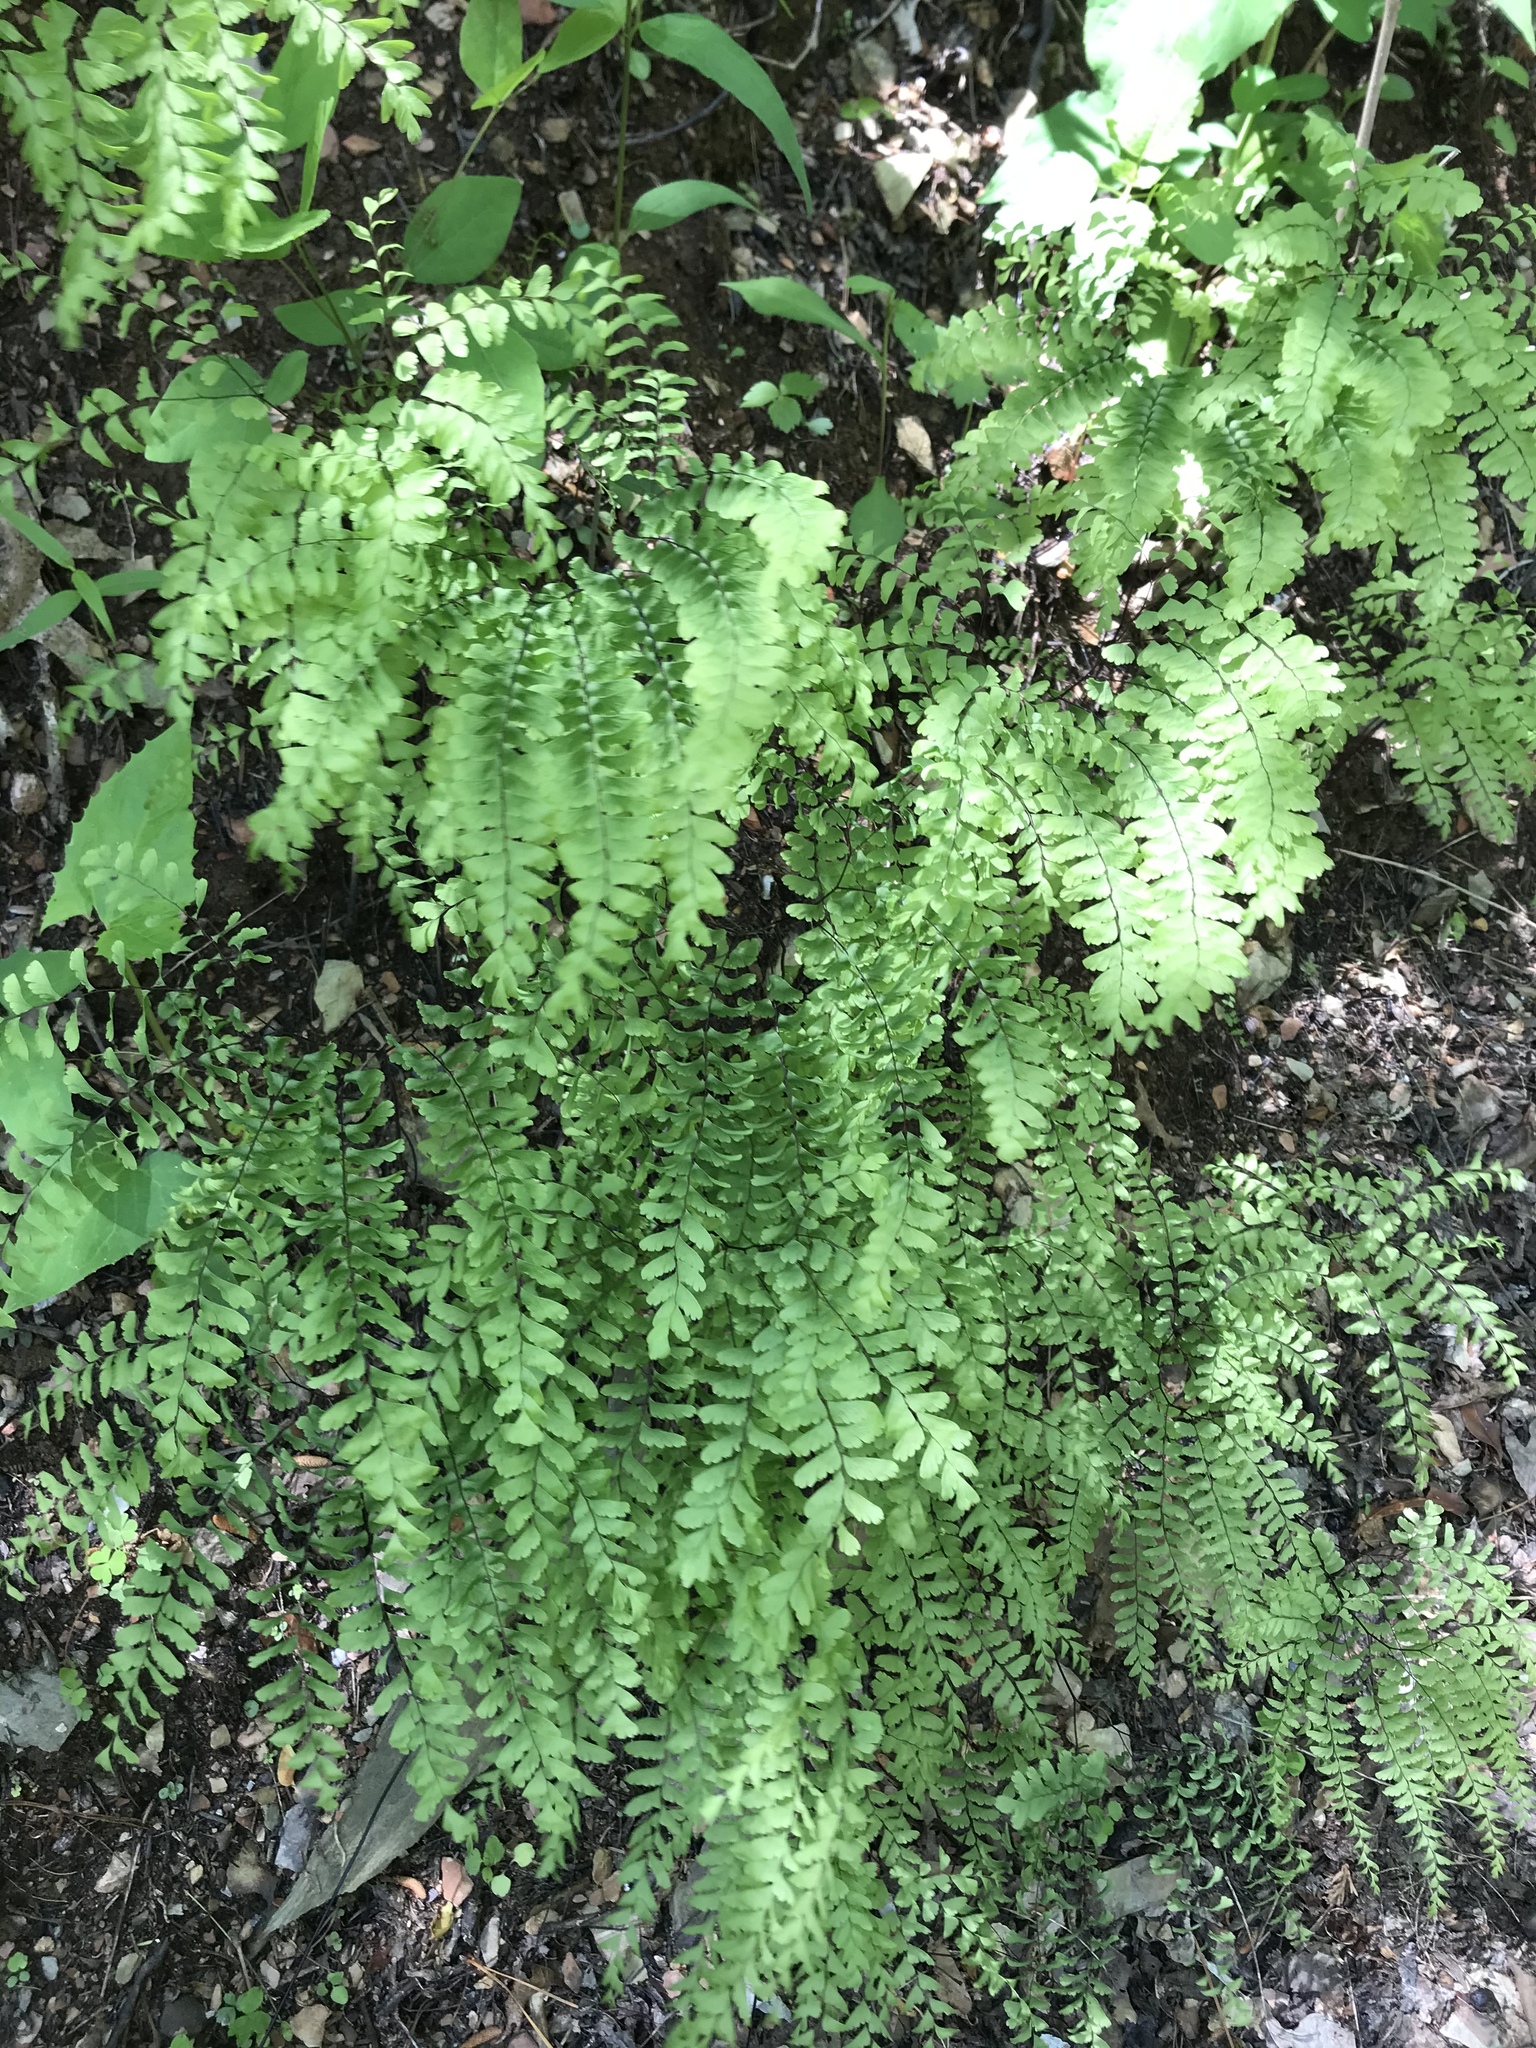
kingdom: Plantae
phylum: Tracheophyta
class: Polypodiopsida
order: Polypodiales
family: Pteridaceae
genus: Adiantum
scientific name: Adiantum pedatum
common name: Five-finger fern
